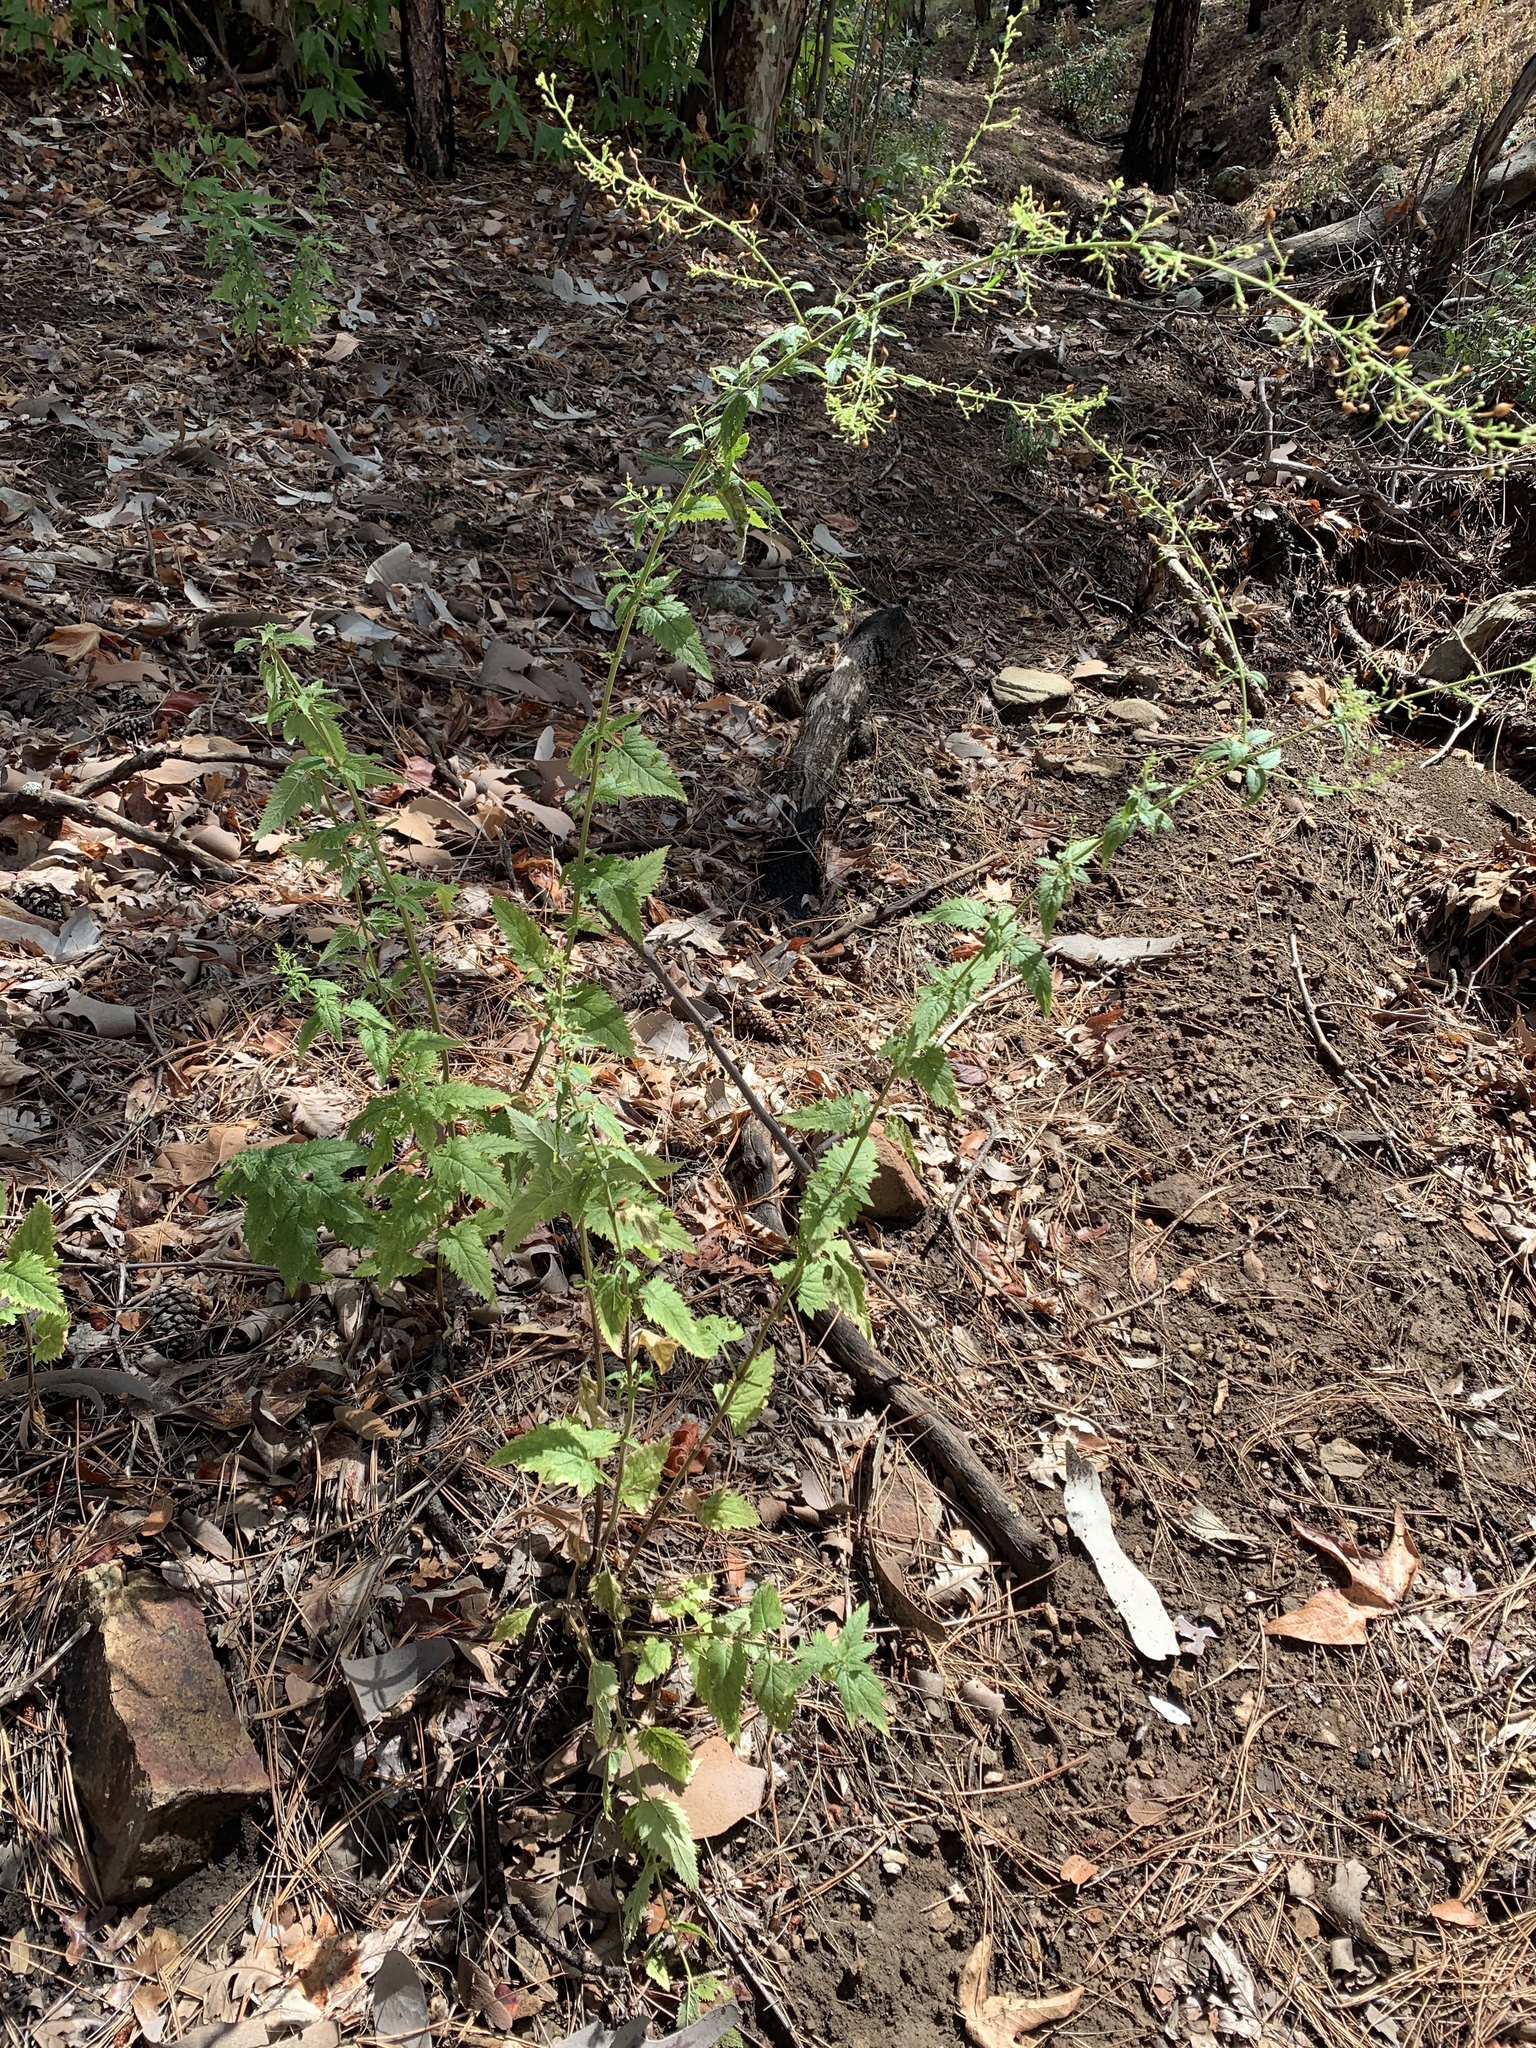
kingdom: Plantae
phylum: Tracheophyta
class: Magnoliopsida
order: Lamiales
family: Scrophulariaceae
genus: Scrophularia
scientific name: Scrophularia parviflora
